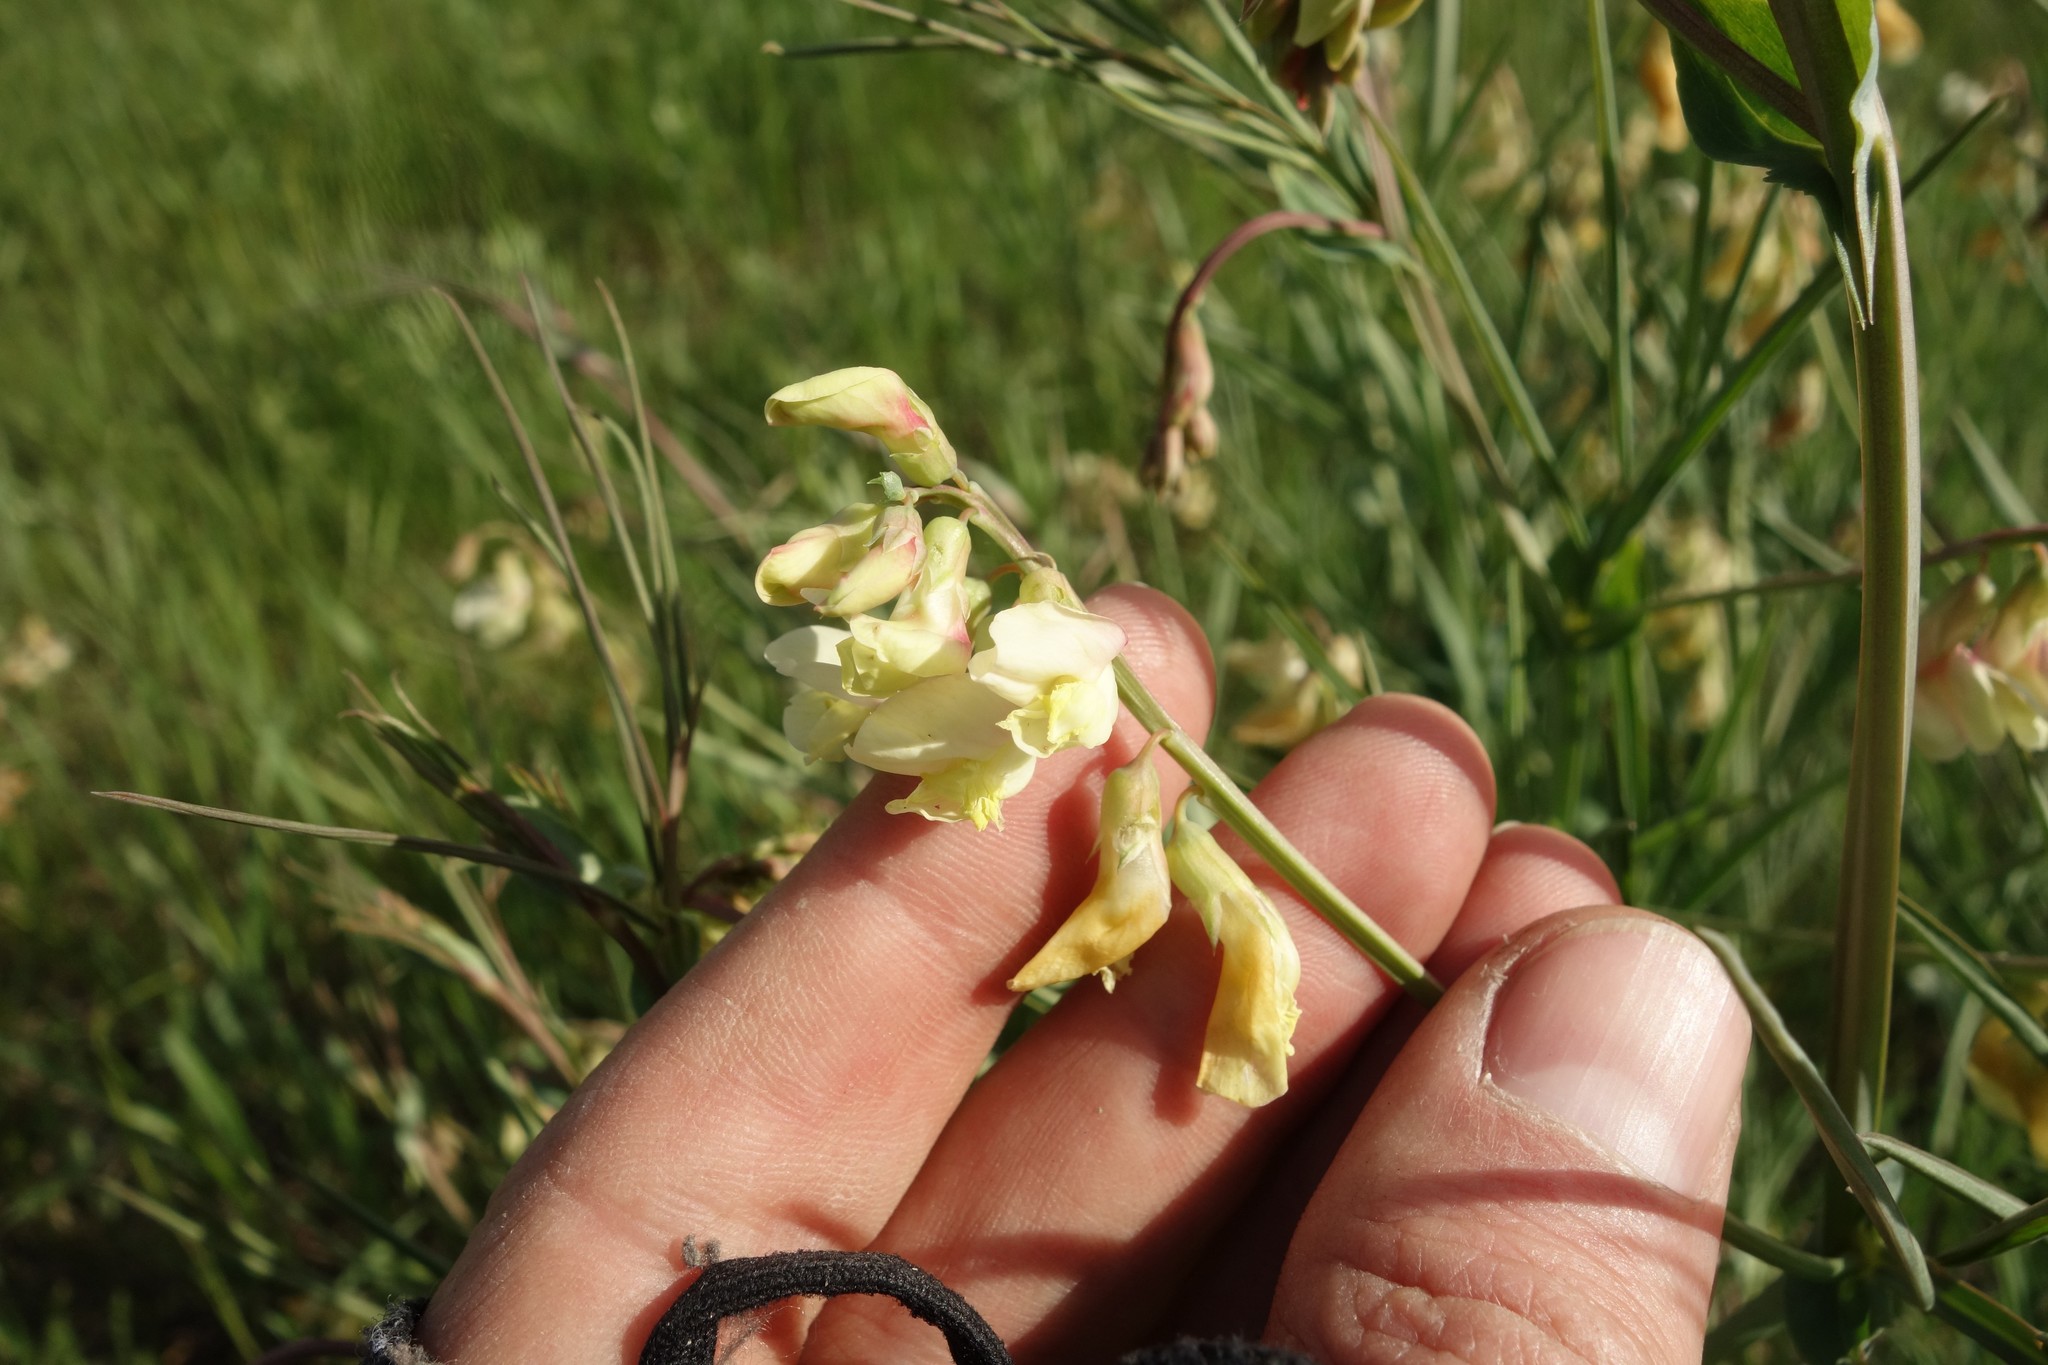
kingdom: Plantae
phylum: Tracheophyta
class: Magnoliopsida
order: Fabales
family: Fabaceae
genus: Lathyrus
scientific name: Lathyrus pannonicus
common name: Pea
